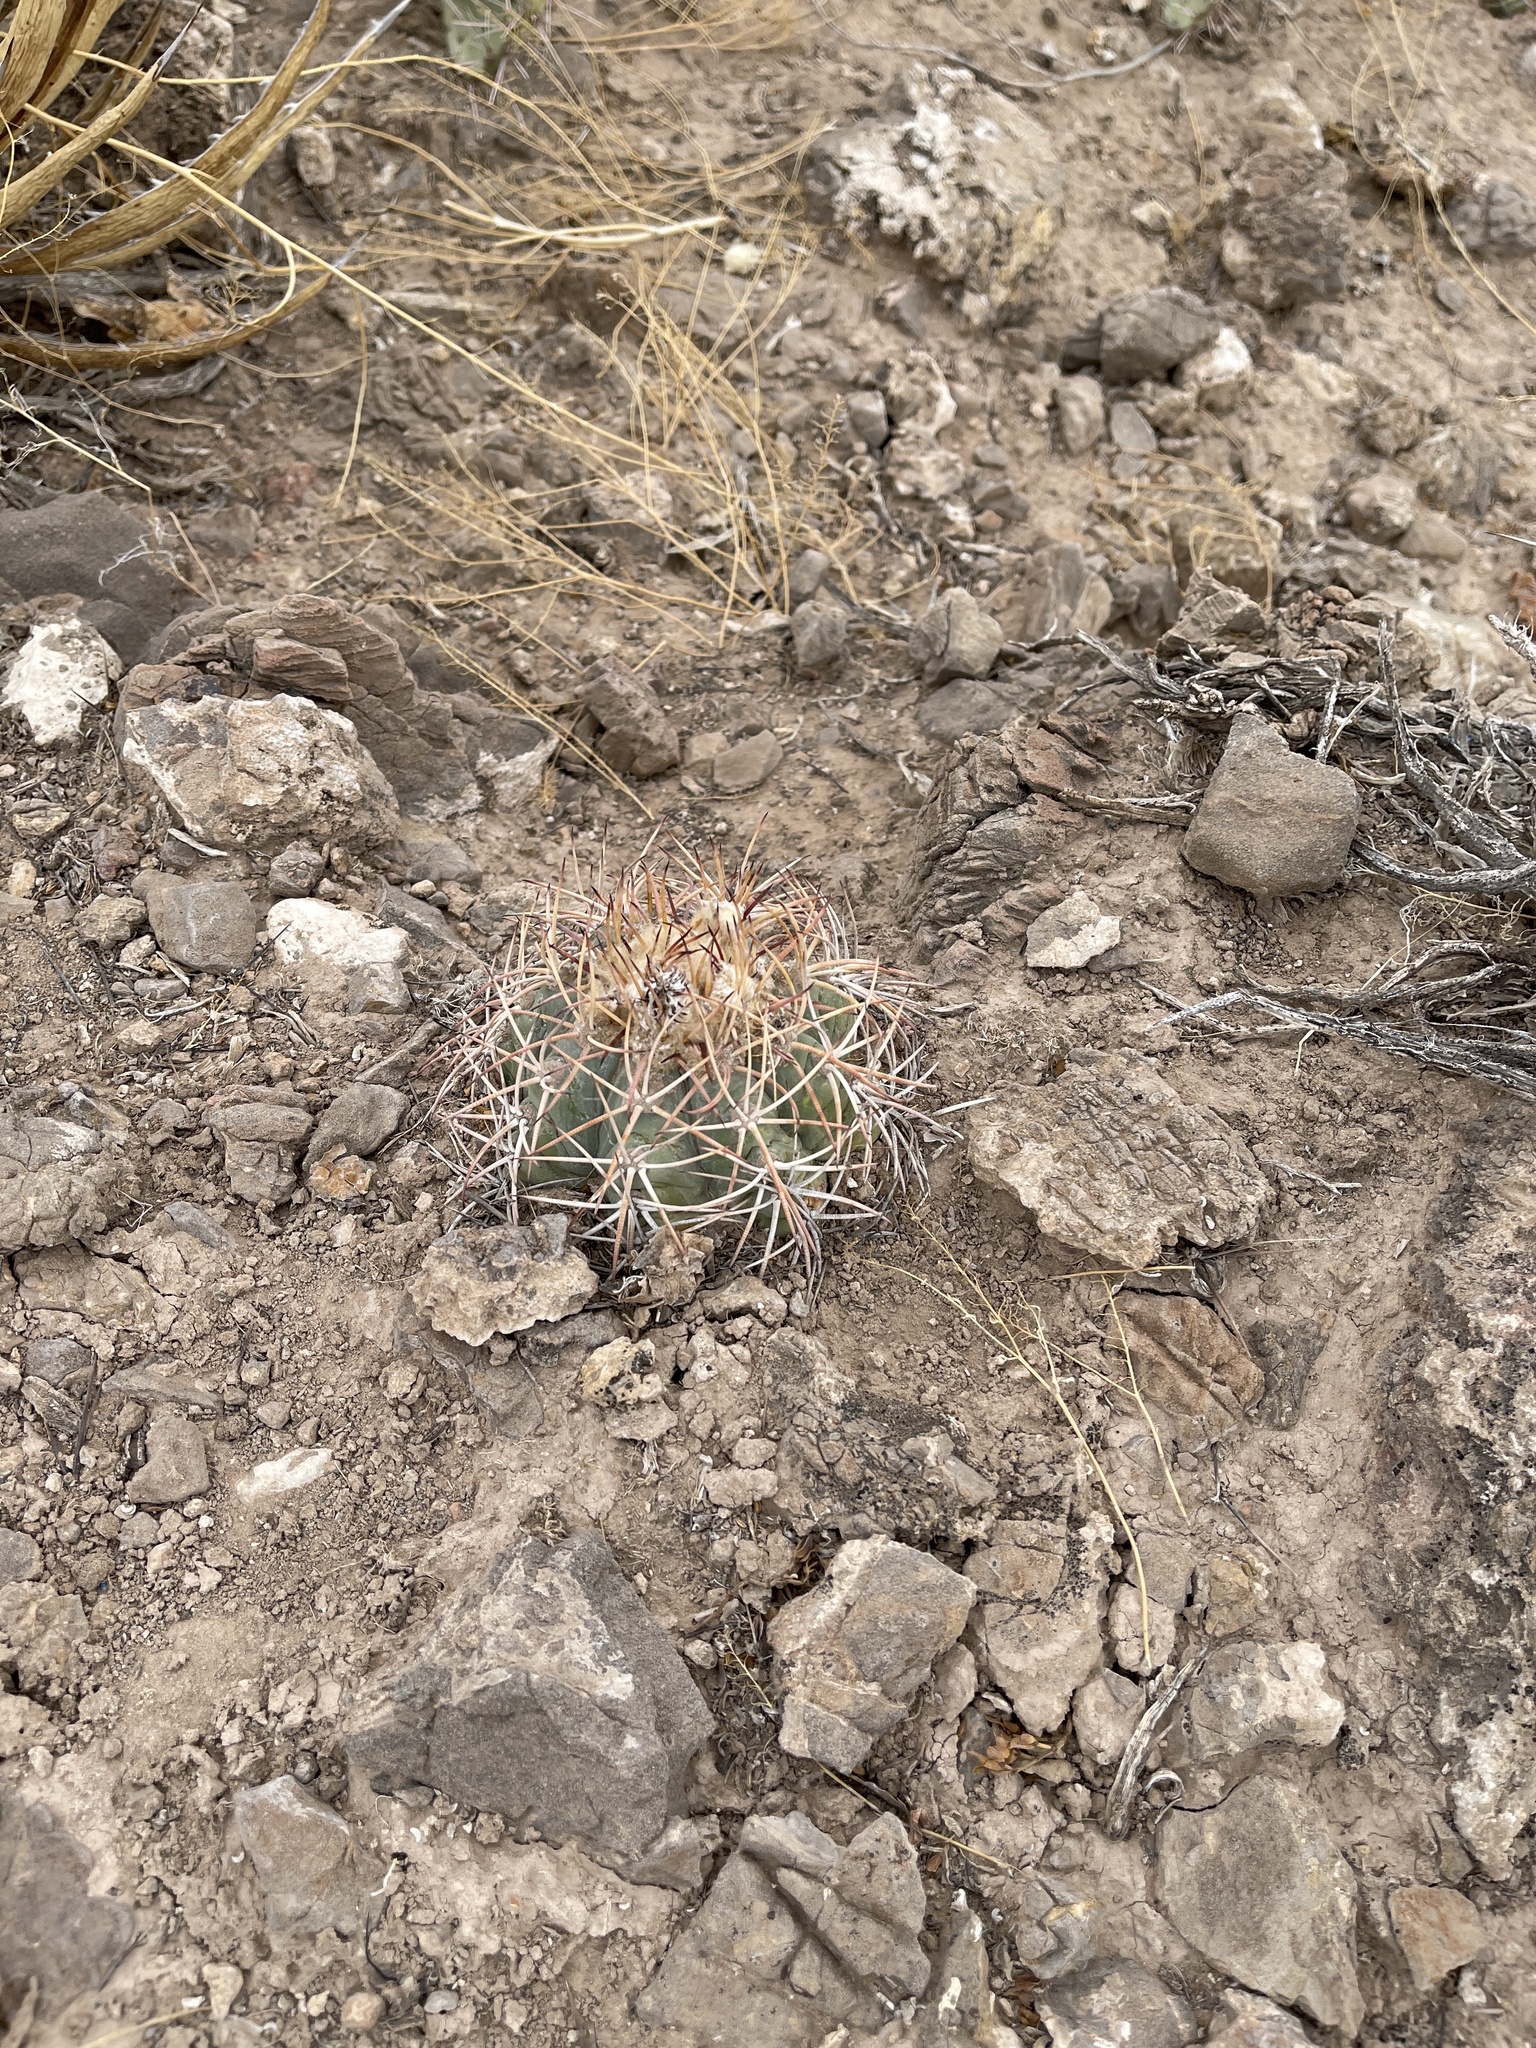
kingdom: Plantae
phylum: Tracheophyta
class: Magnoliopsida
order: Caryophyllales
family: Cactaceae
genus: Echinocactus
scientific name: Echinocactus horizonthalonius
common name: Devilshead
